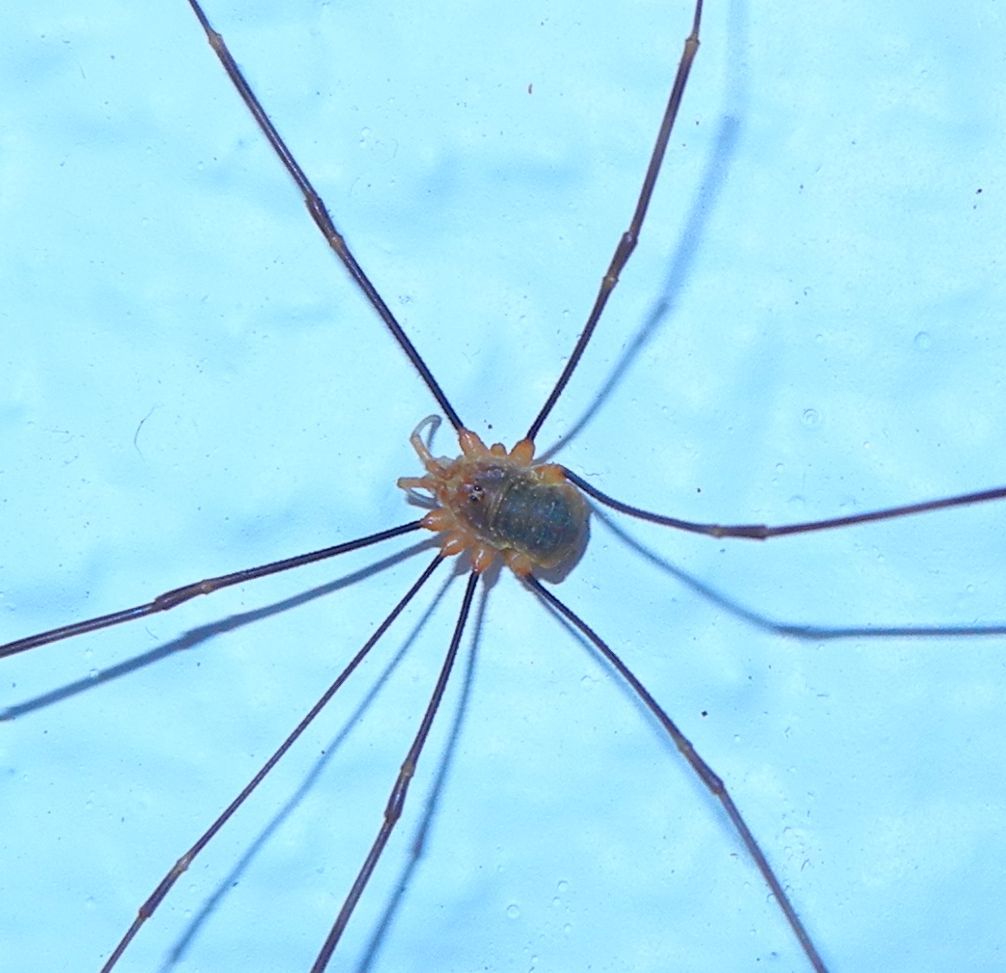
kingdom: Animalia
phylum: Arthropoda
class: Arachnida
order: Opiliones
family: Phalangiidae
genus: Opilio
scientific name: Opilio canestrinii
